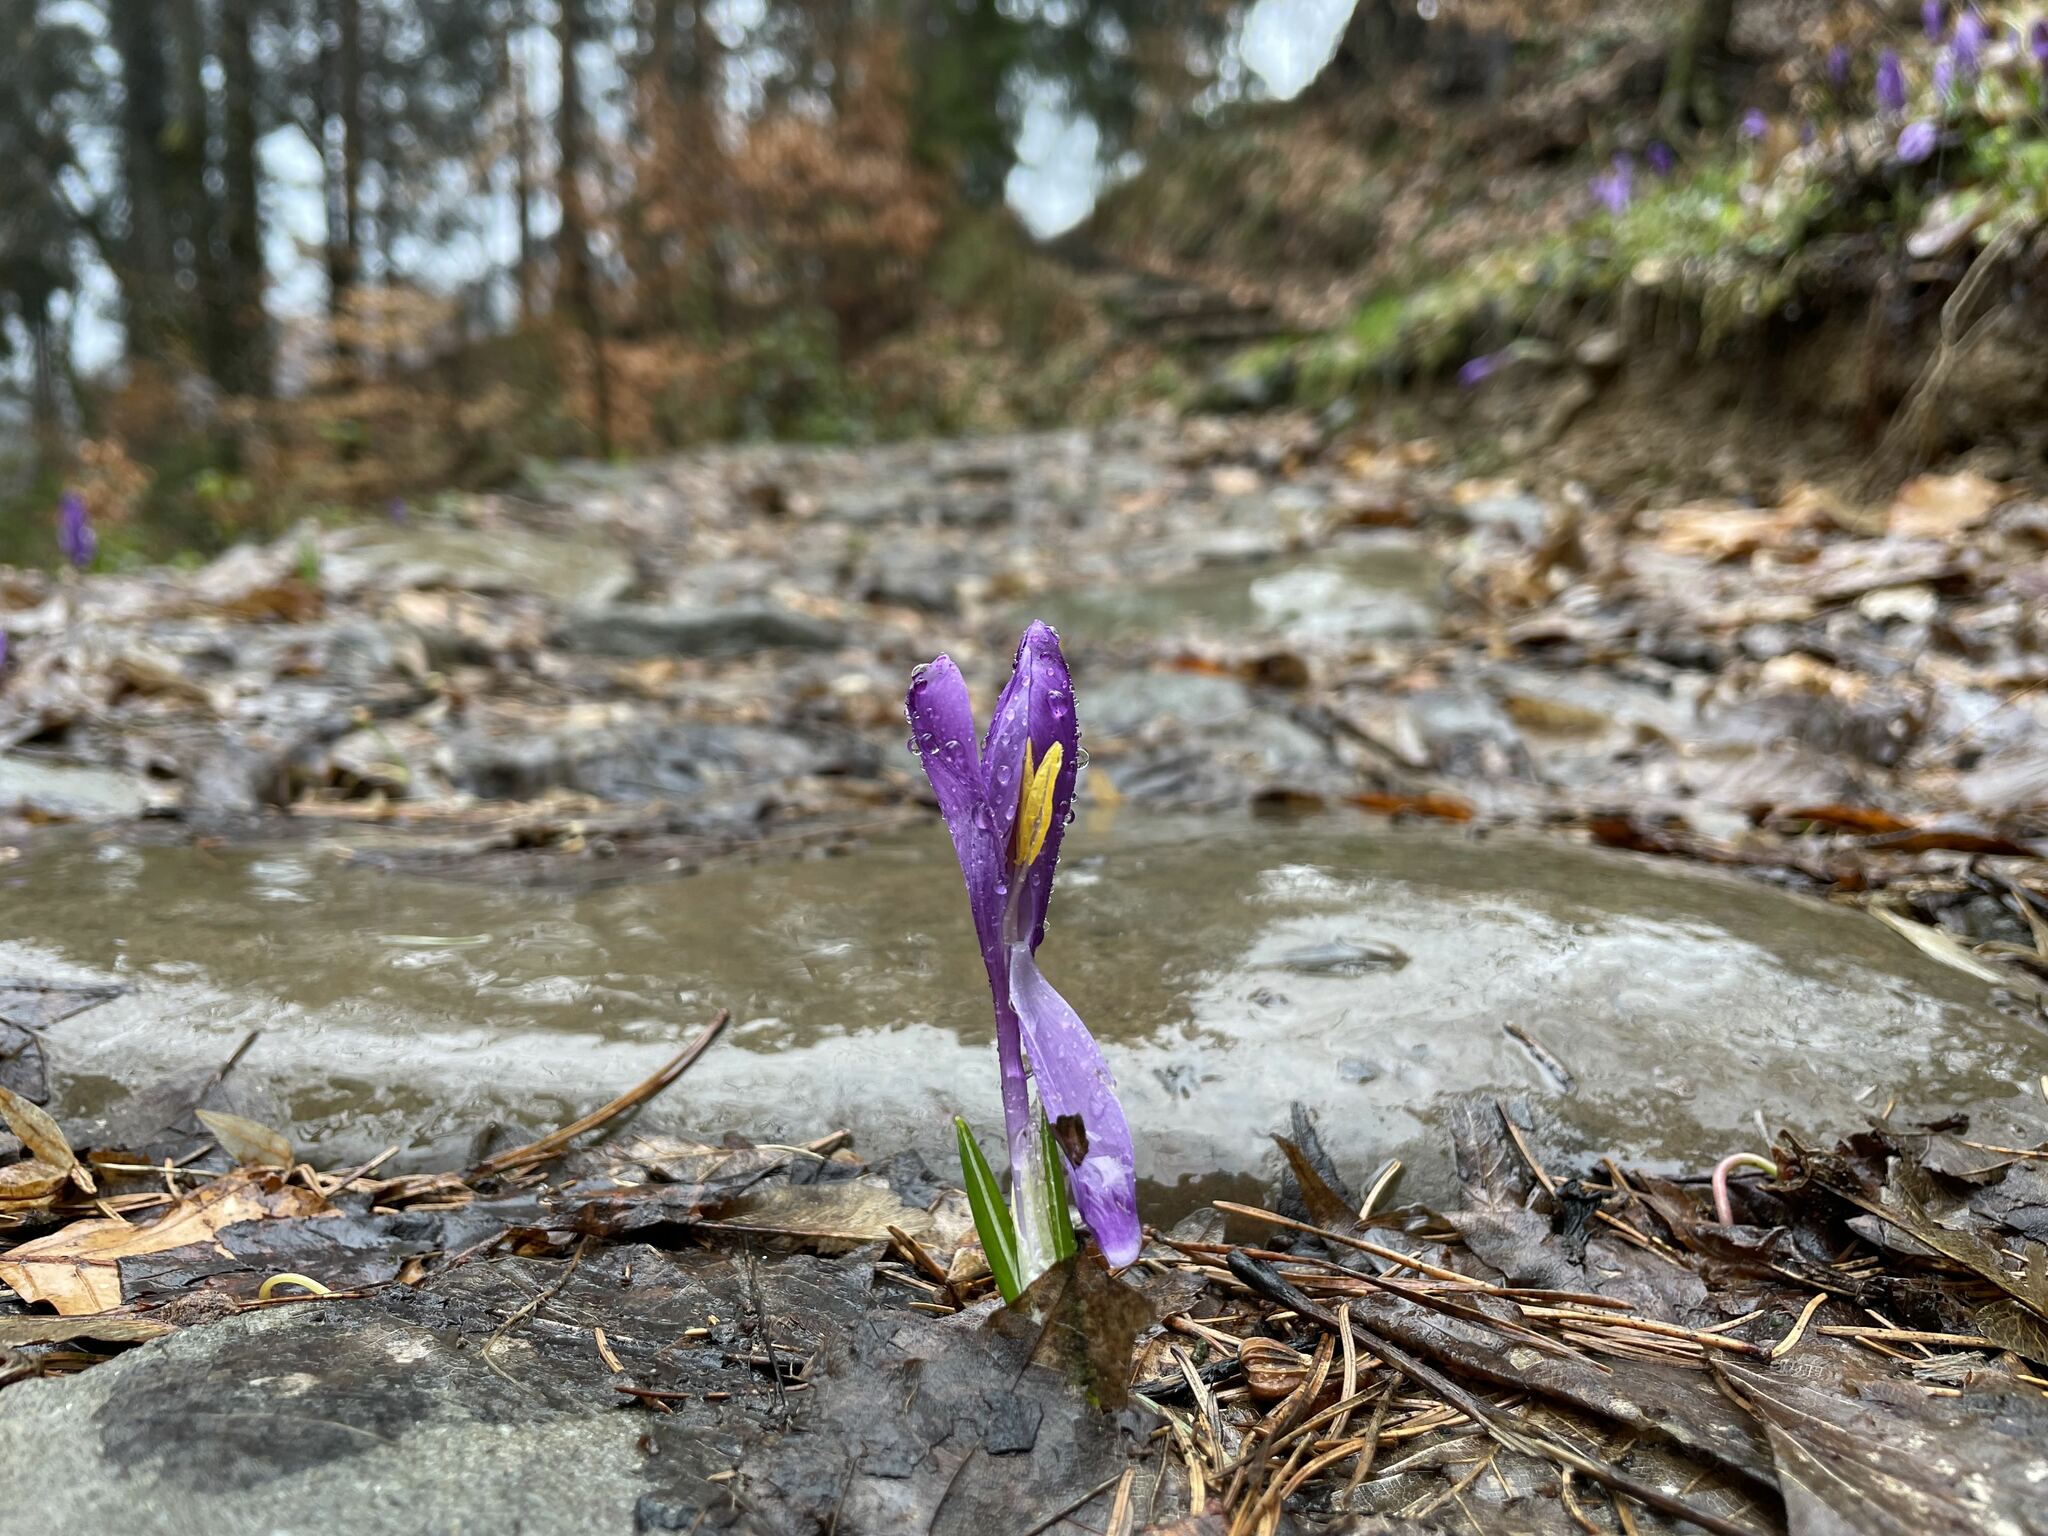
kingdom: Plantae
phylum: Tracheophyta
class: Liliopsida
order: Asparagales
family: Iridaceae
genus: Crocus
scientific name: Crocus heuffelianus
